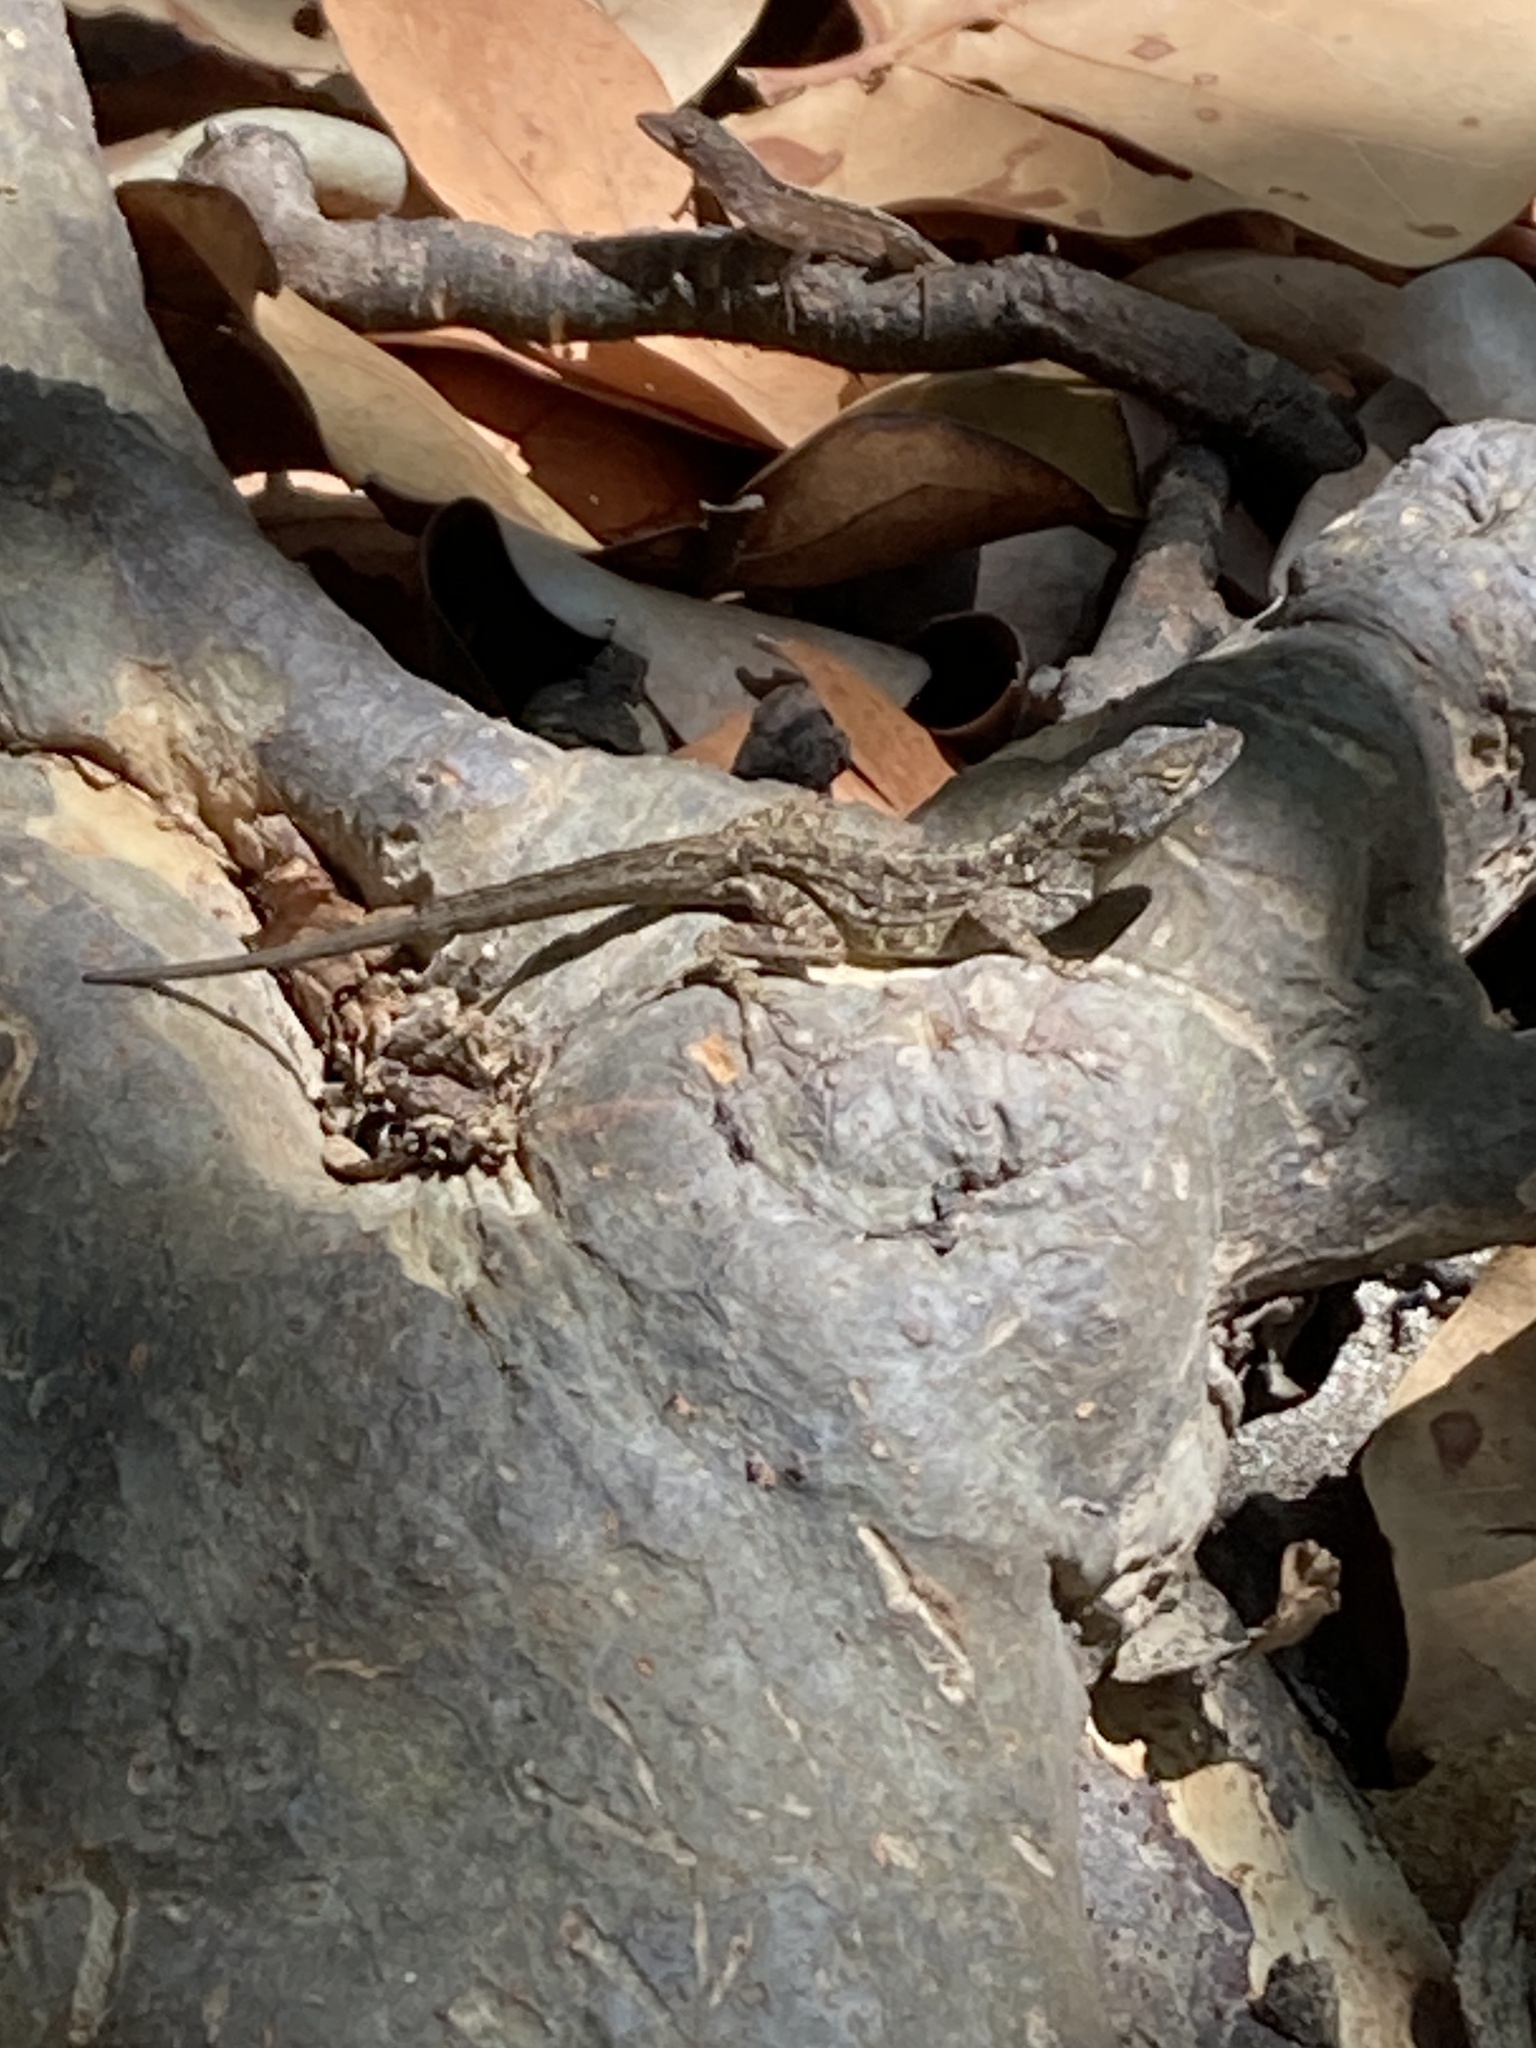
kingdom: Animalia
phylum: Chordata
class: Squamata
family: Dactyloidae
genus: Anolis
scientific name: Anolis sagrei
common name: Brown anole
